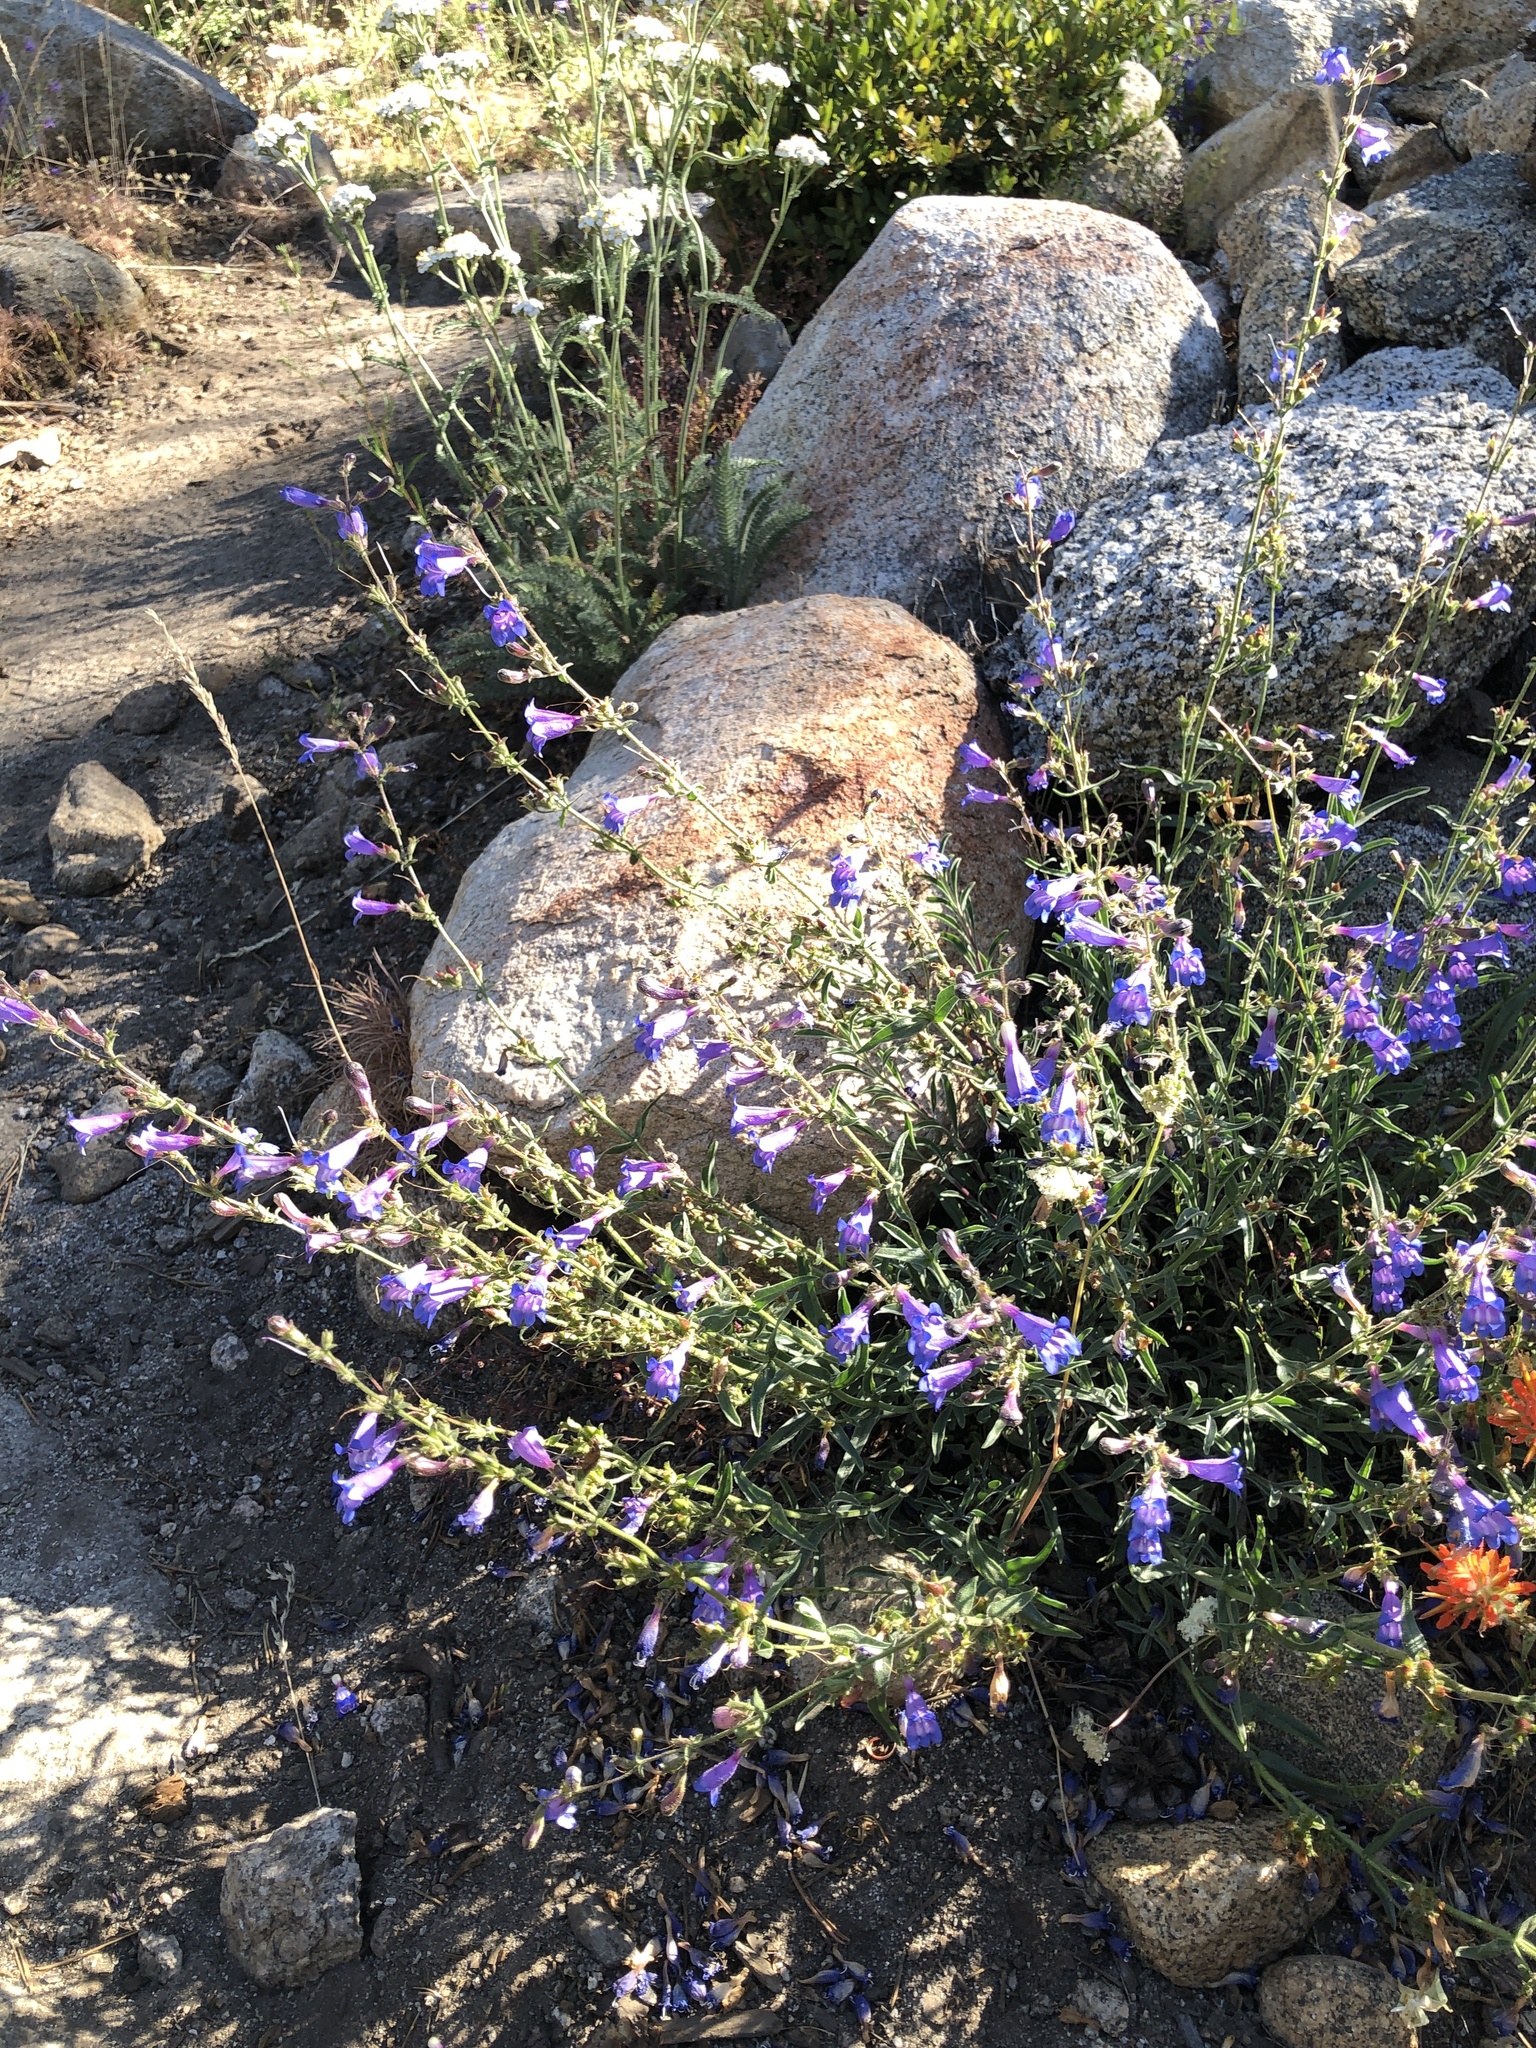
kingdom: Plantae
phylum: Tracheophyta
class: Magnoliopsida
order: Lamiales
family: Plantaginaceae
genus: Penstemon
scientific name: Penstemon laetus
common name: Gay penstemon
